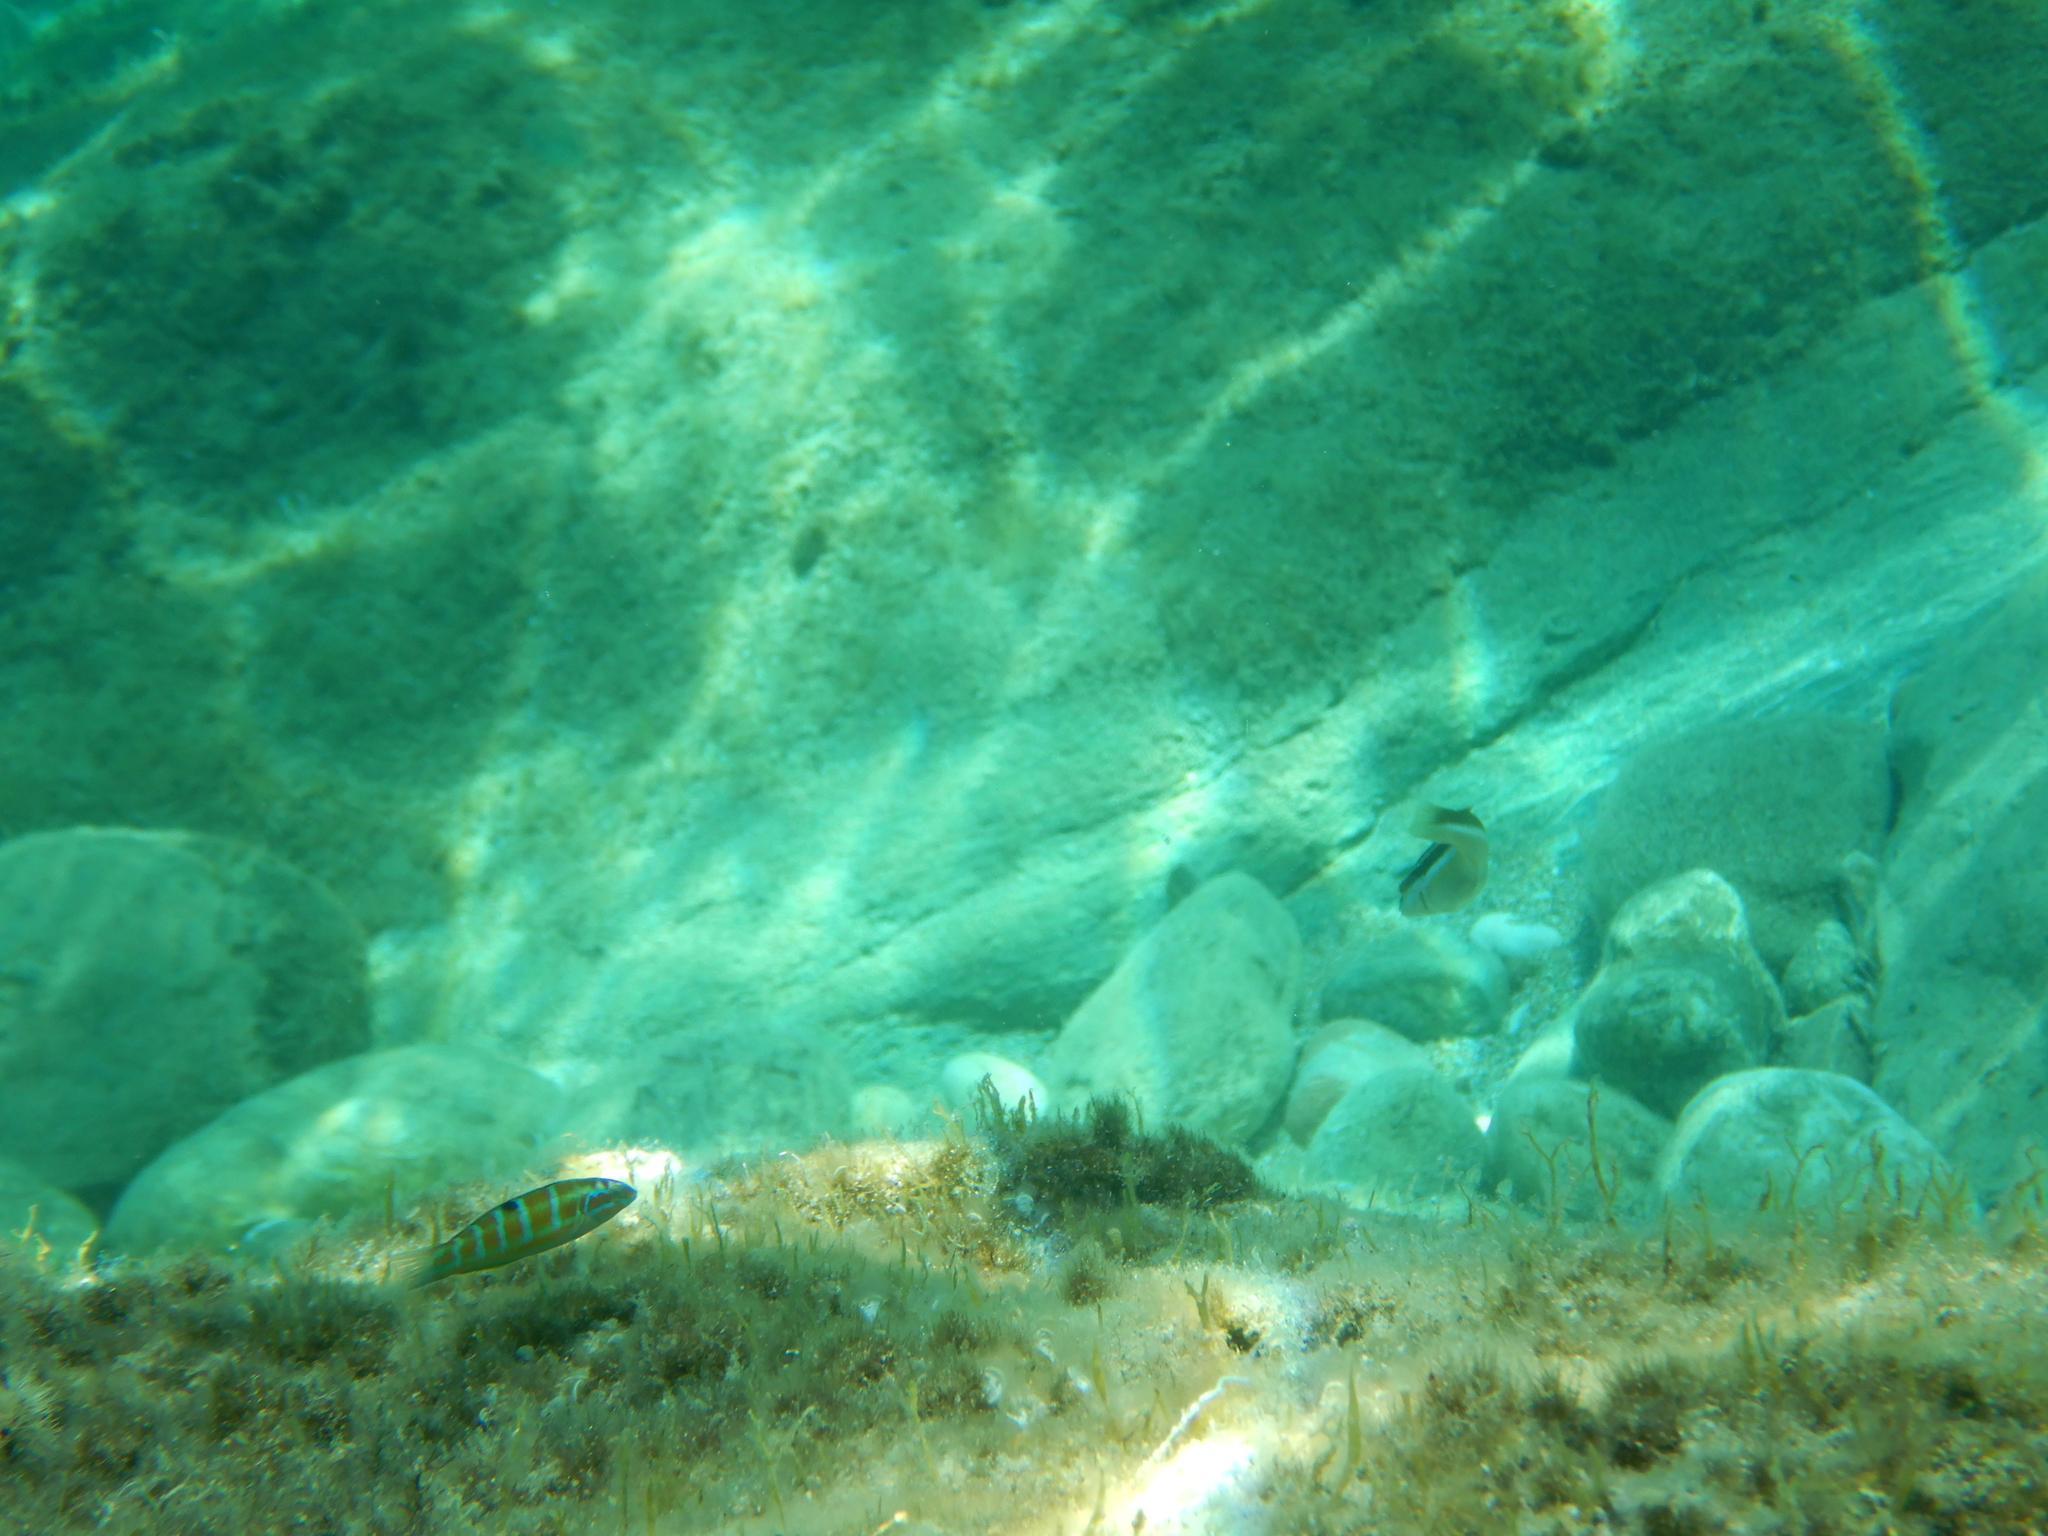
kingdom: Animalia
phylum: Chordata
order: Perciformes
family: Labridae
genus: Thalassoma
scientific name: Thalassoma pavo
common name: Ornate wrasse
